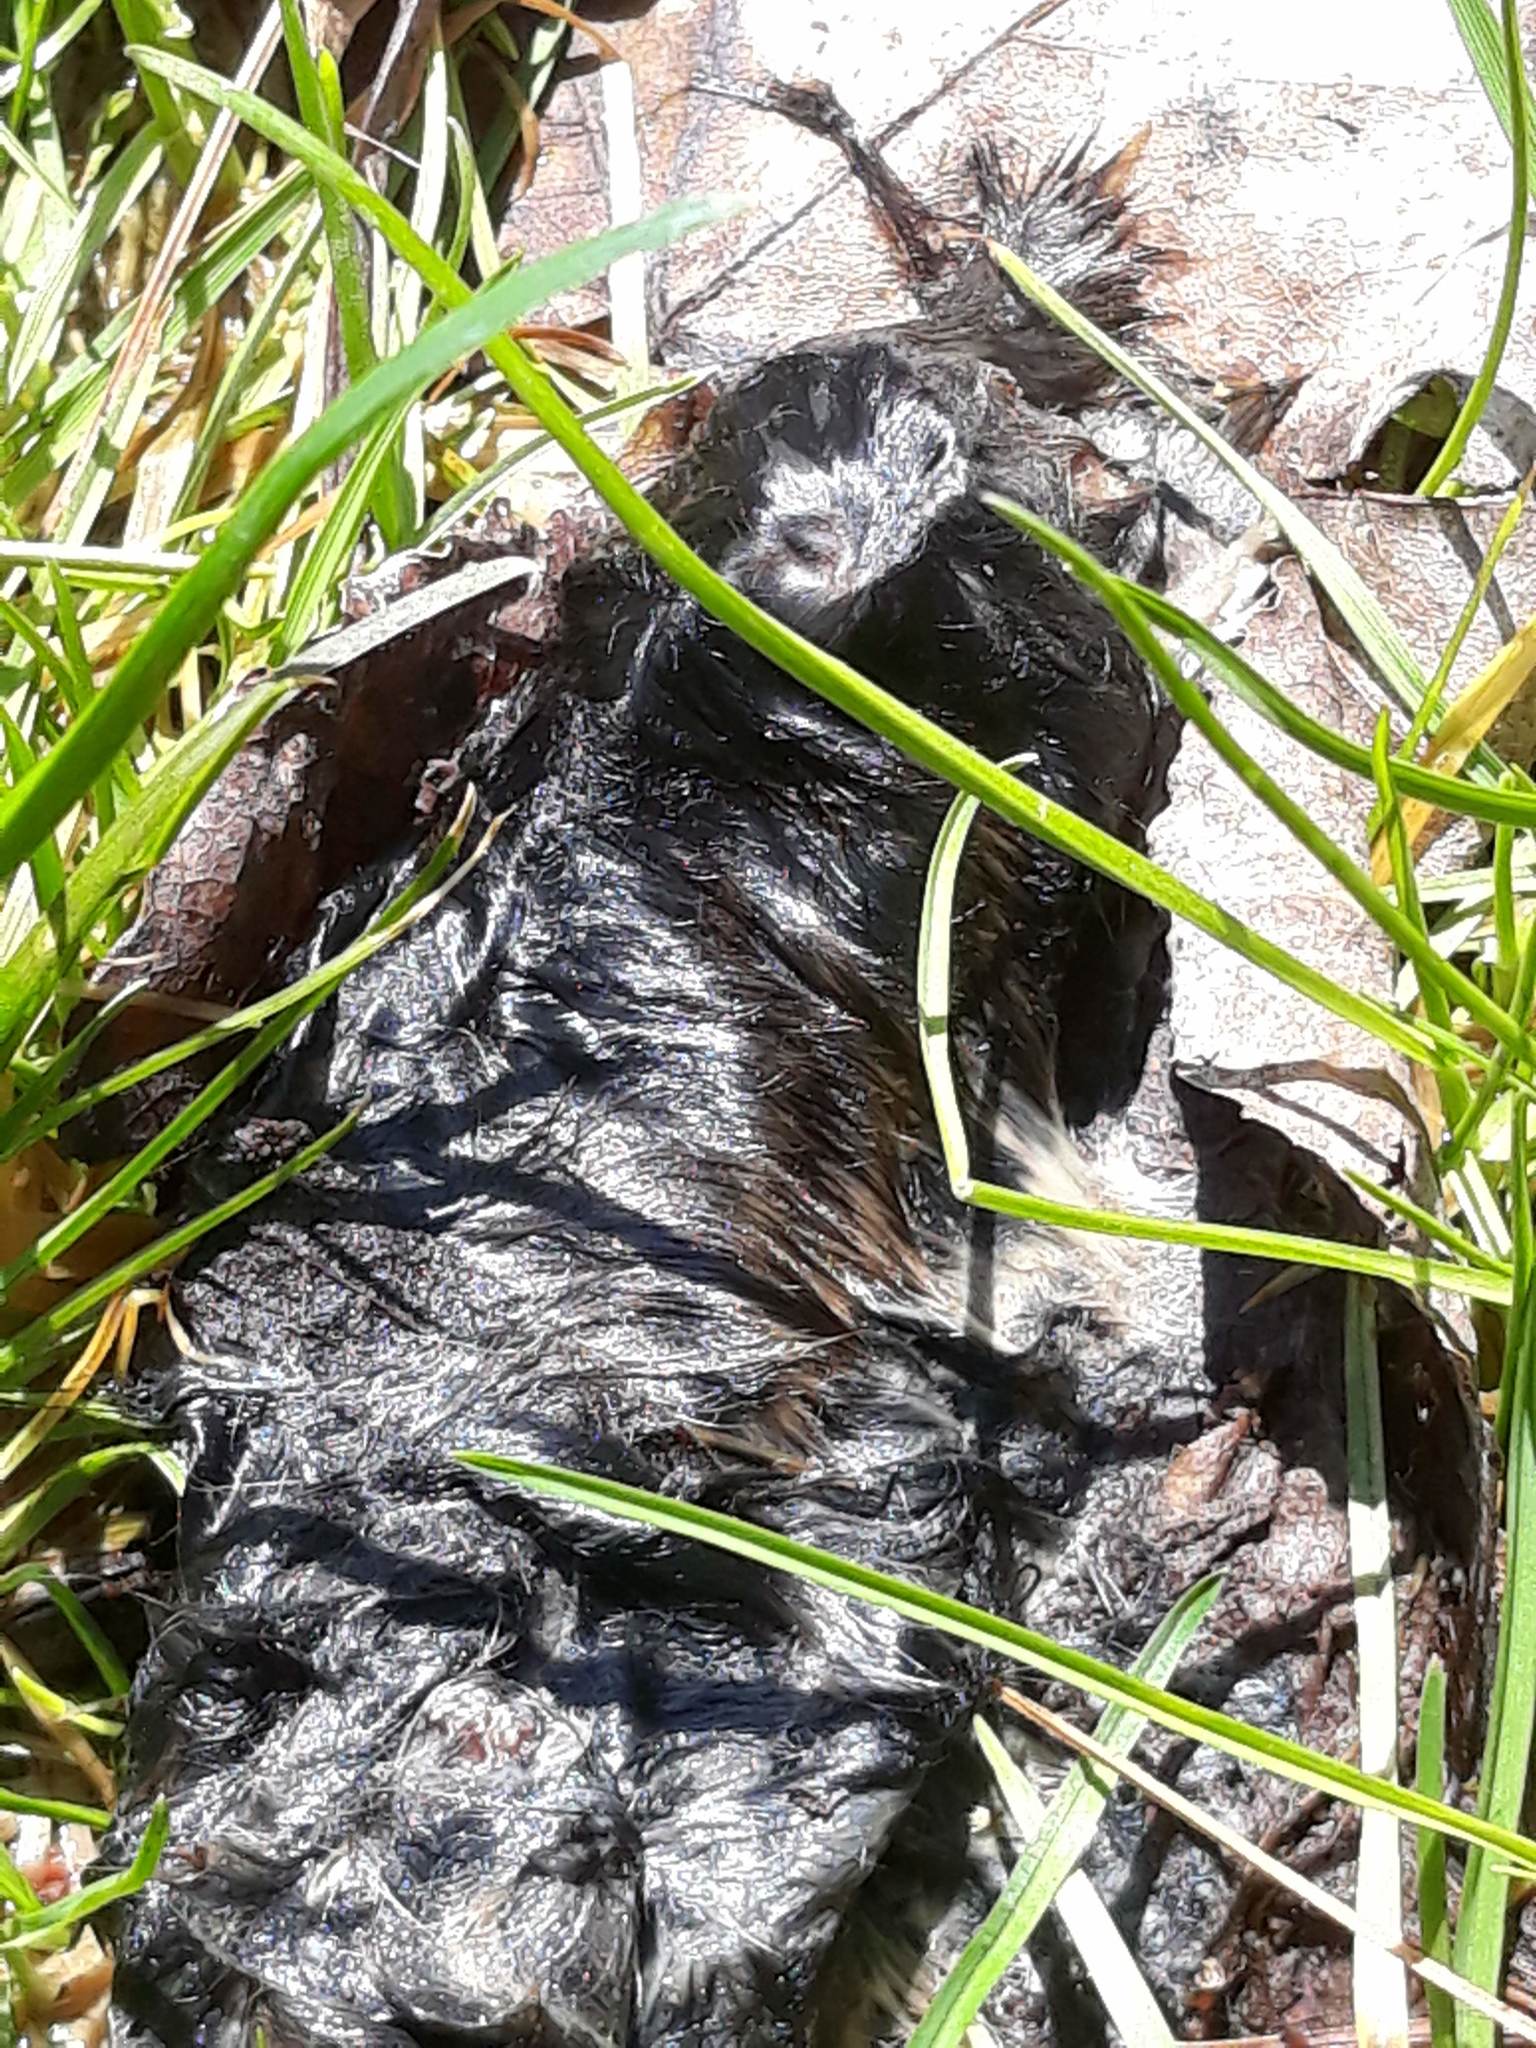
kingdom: Animalia
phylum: Chordata
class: Mammalia
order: Rodentia
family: Cricetidae
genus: Microtus
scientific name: Microtus pennsylvanicus
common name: Meadow vole
